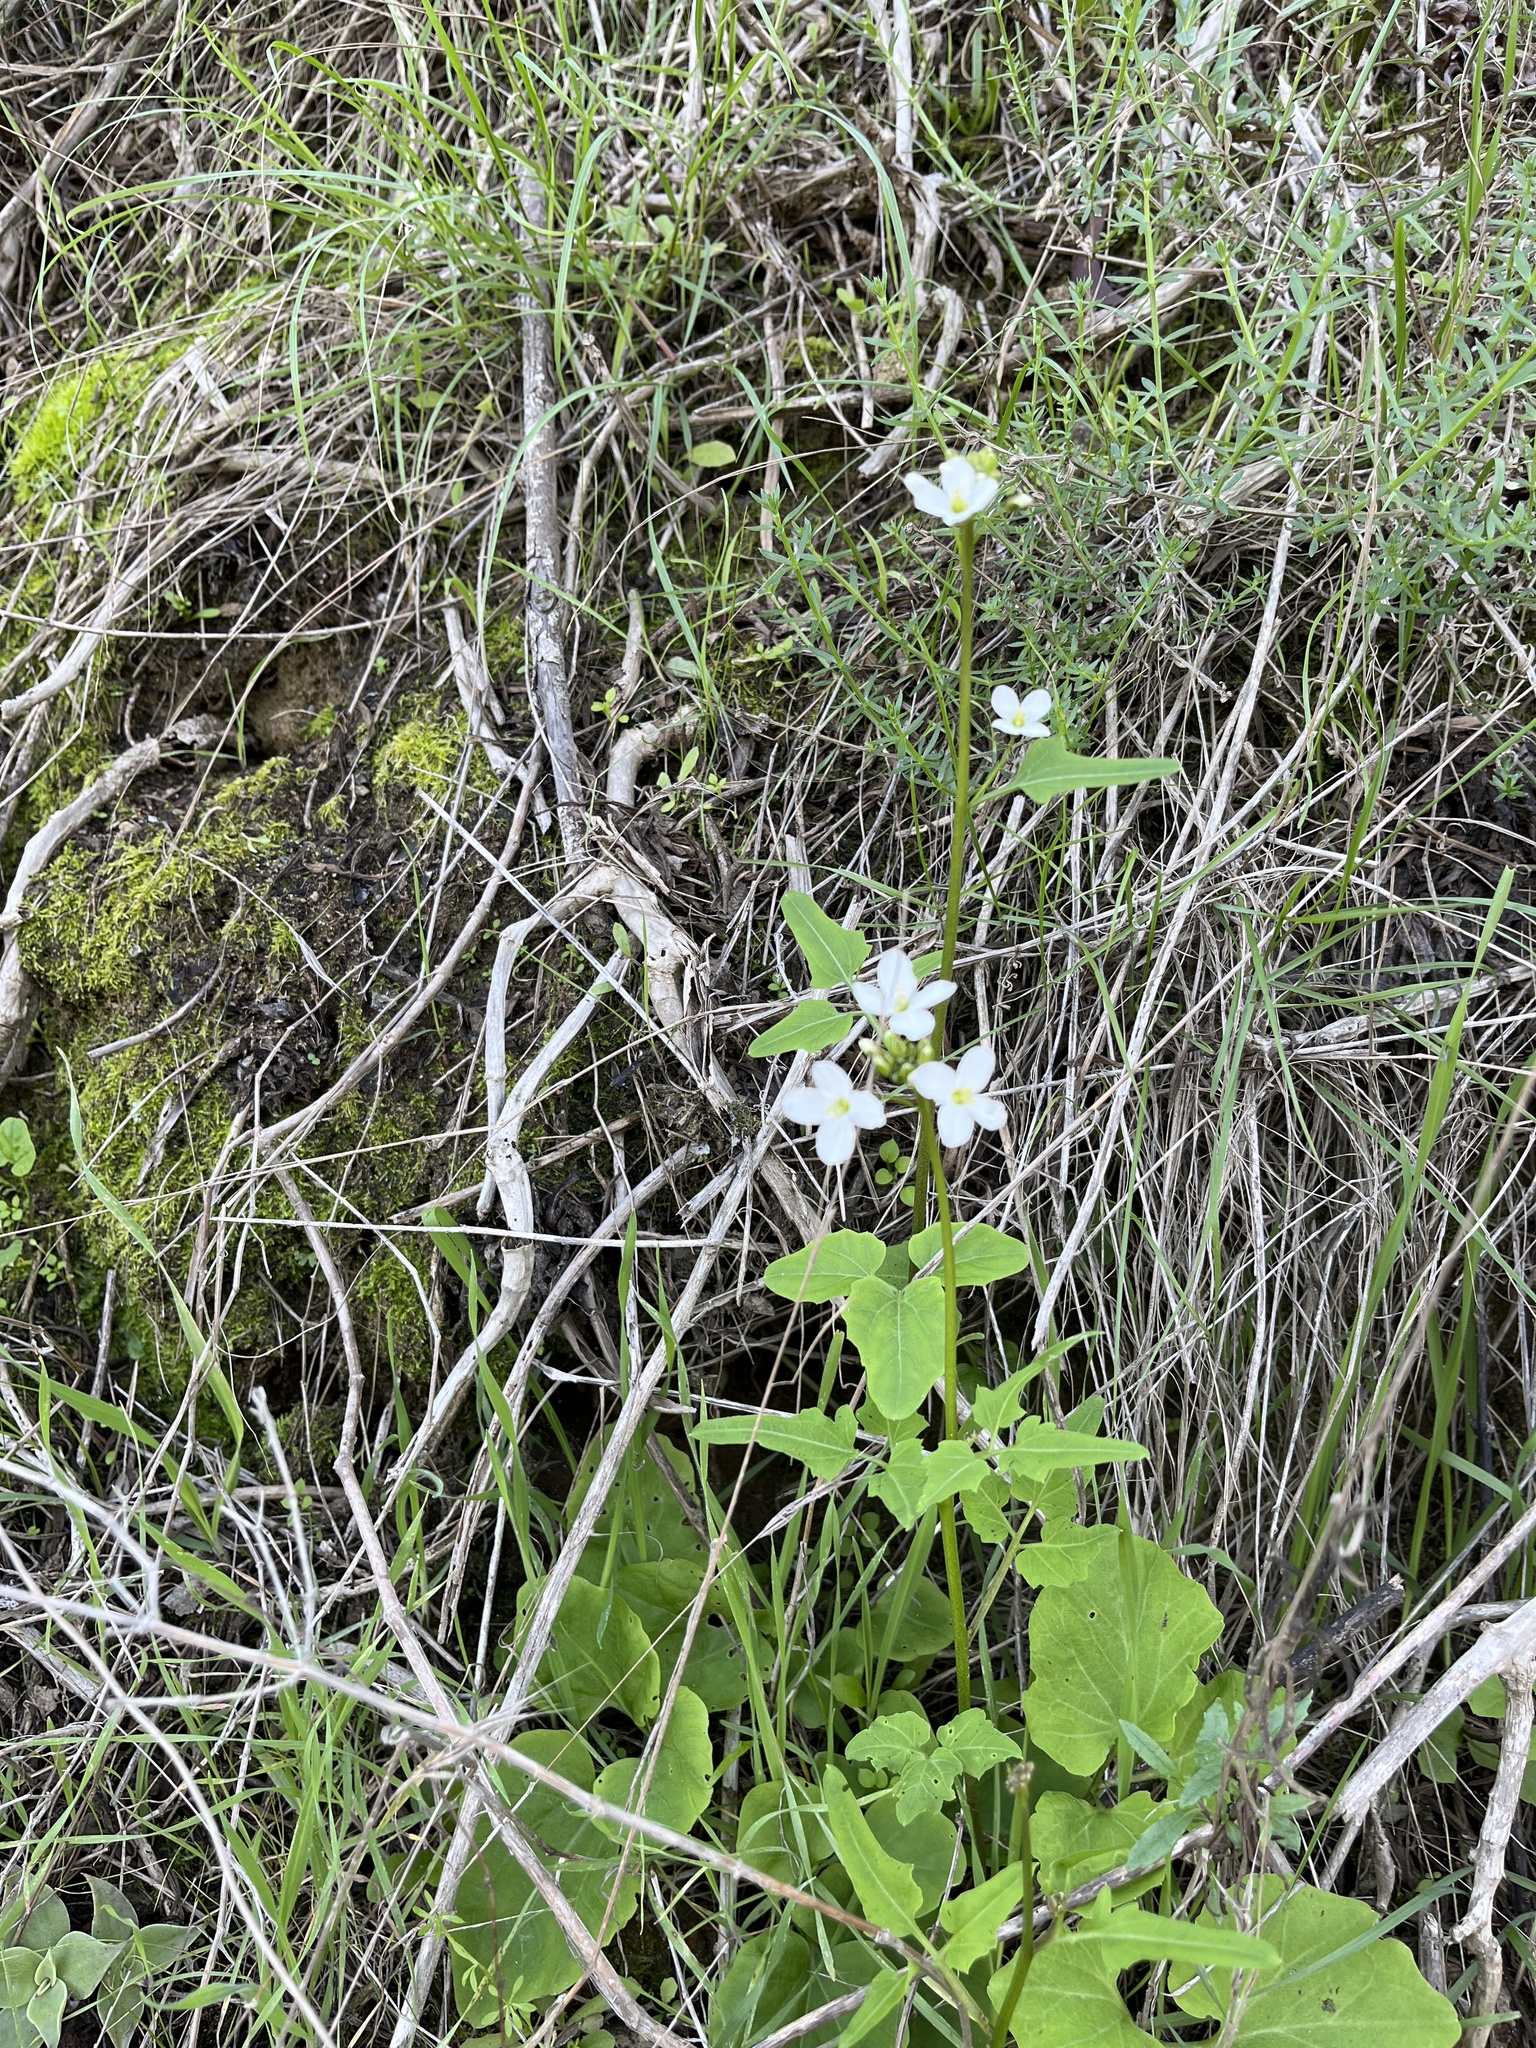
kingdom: Plantae
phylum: Tracheophyta
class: Magnoliopsida
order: Brassicales
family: Brassicaceae
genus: Cardamine
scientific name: Cardamine californica
